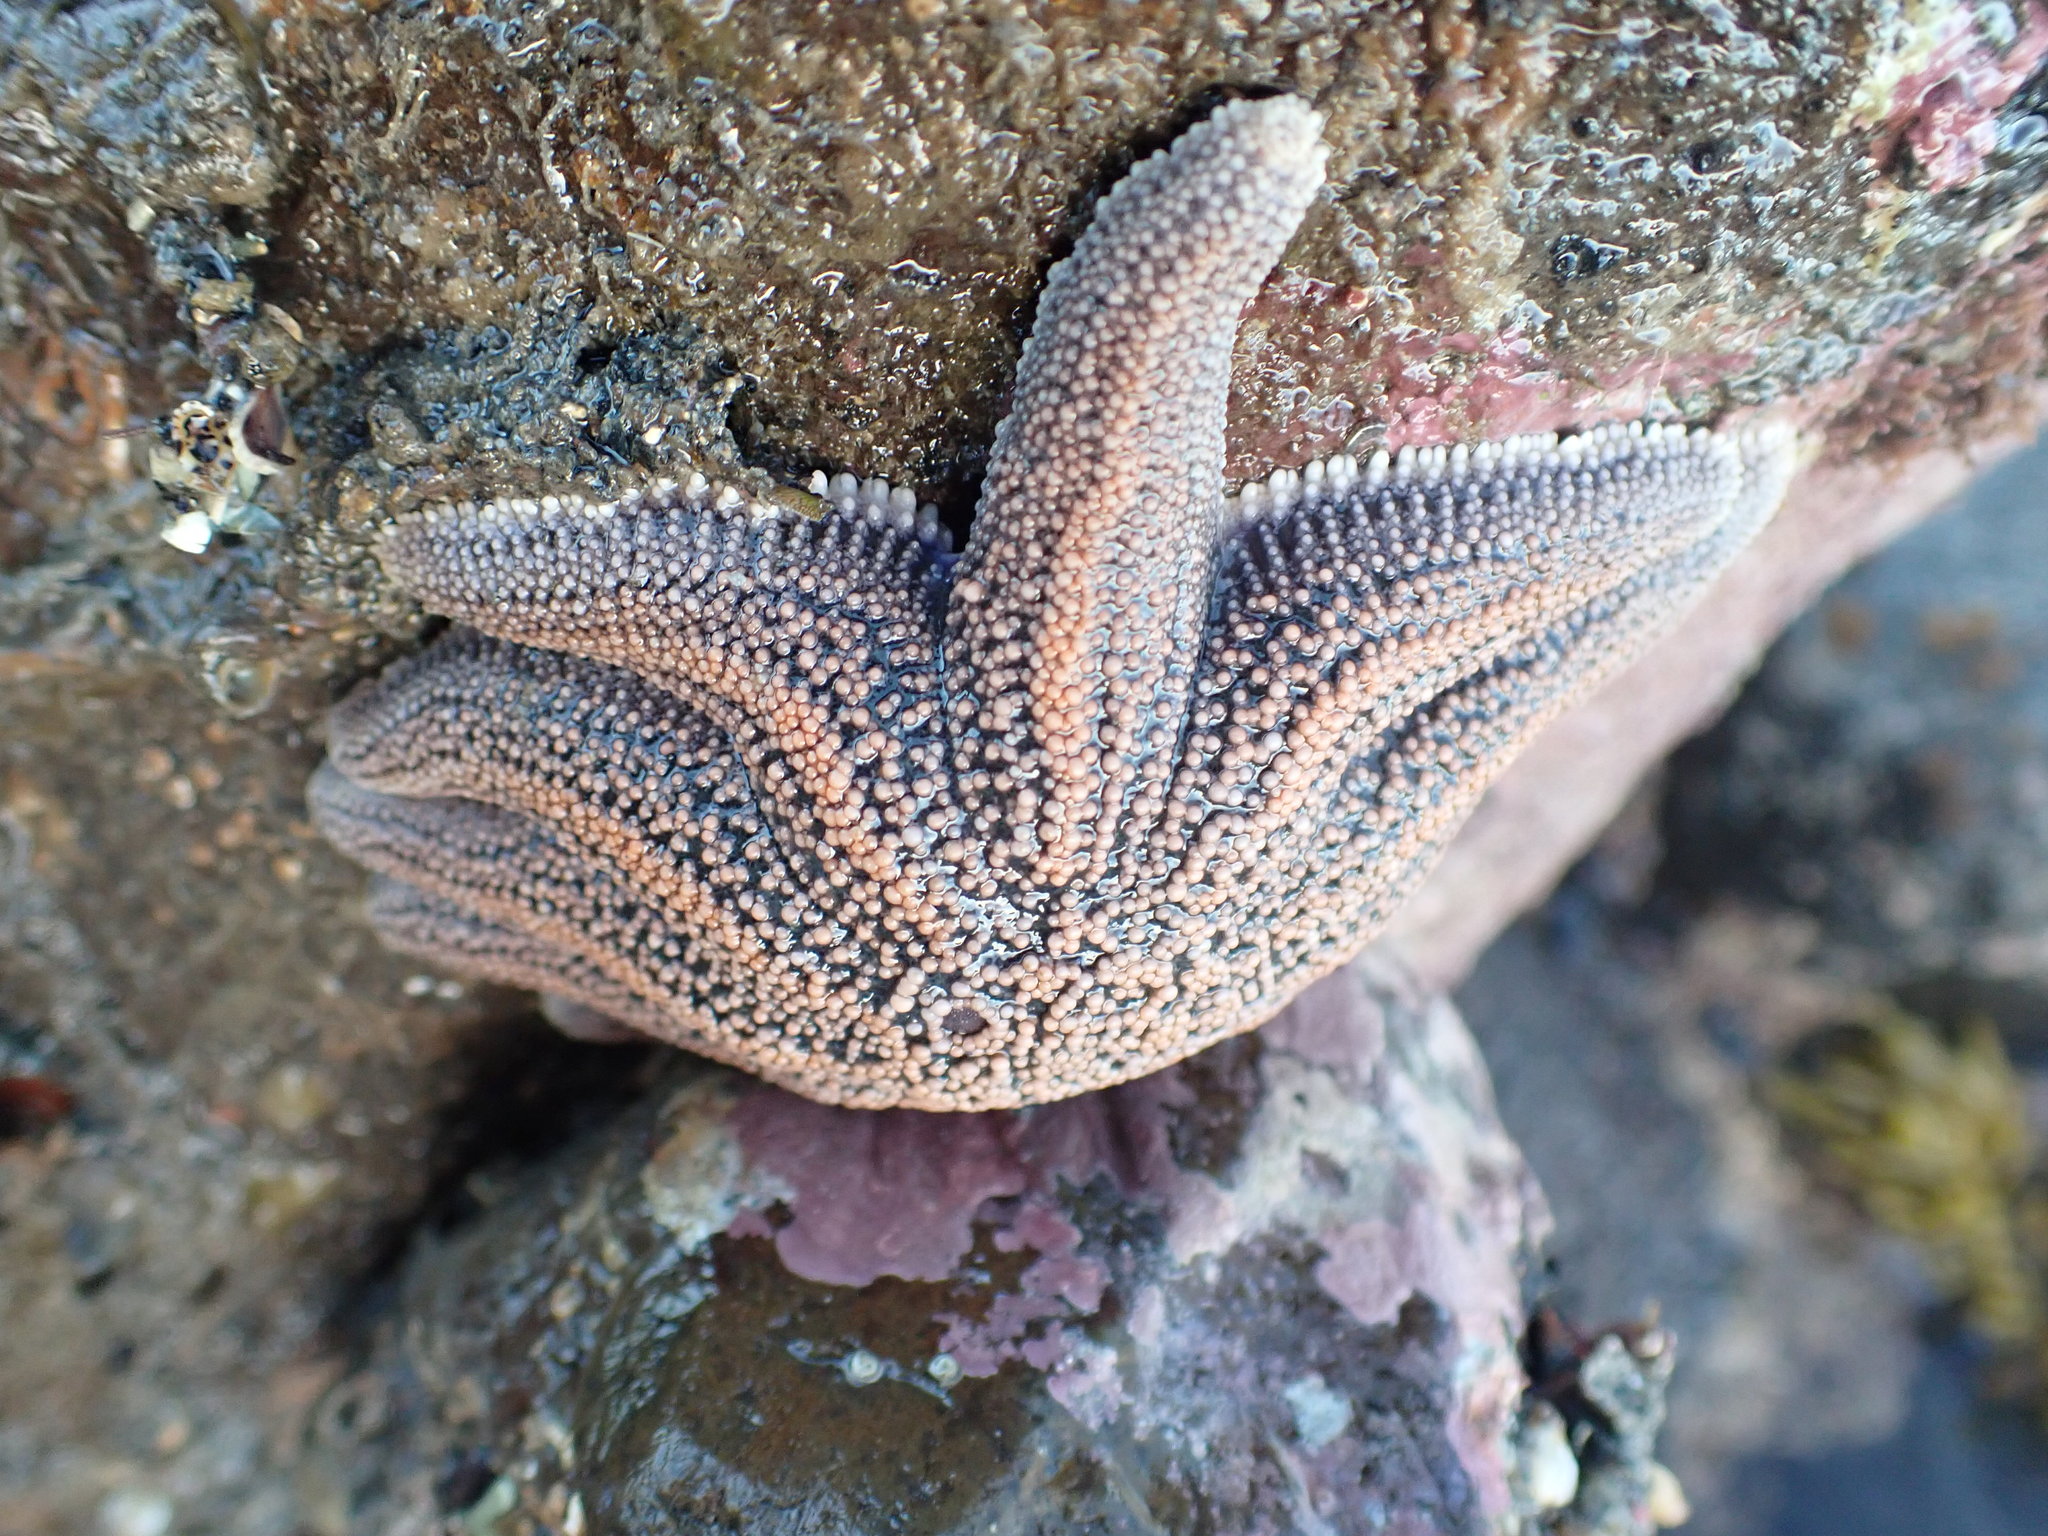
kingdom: Animalia
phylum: Echinodermata
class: Asteroidea
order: Forcipulatida
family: Stichasteridae
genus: Stichaster
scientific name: Stichaster australis
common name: Reef starfish
